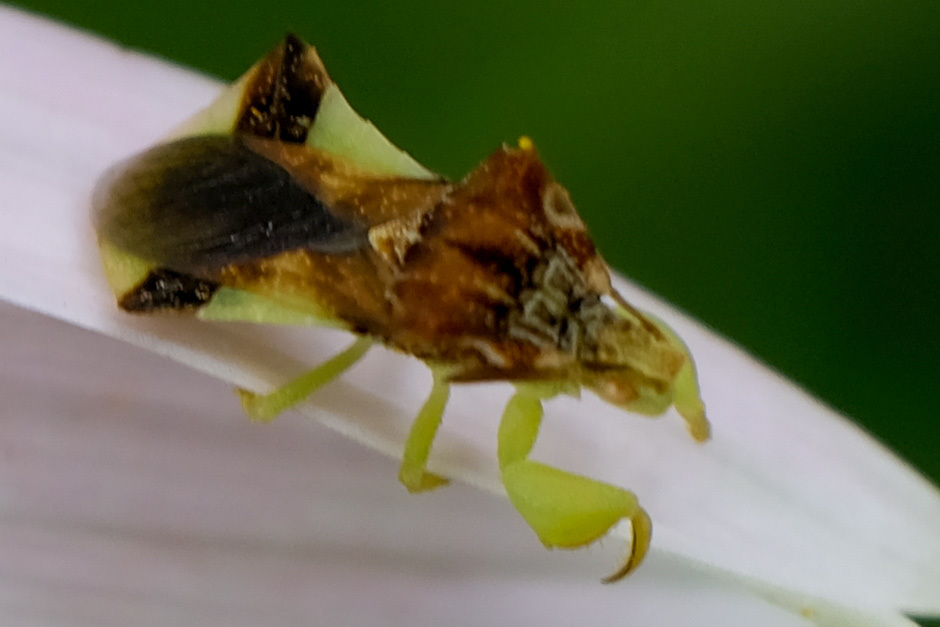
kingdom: Animalia
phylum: Arthropoda
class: Insecta
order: Hemiptera
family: Reduviidae
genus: Phymata
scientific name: Phymata pennsylvanica
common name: Pennsylvania ambush bug
